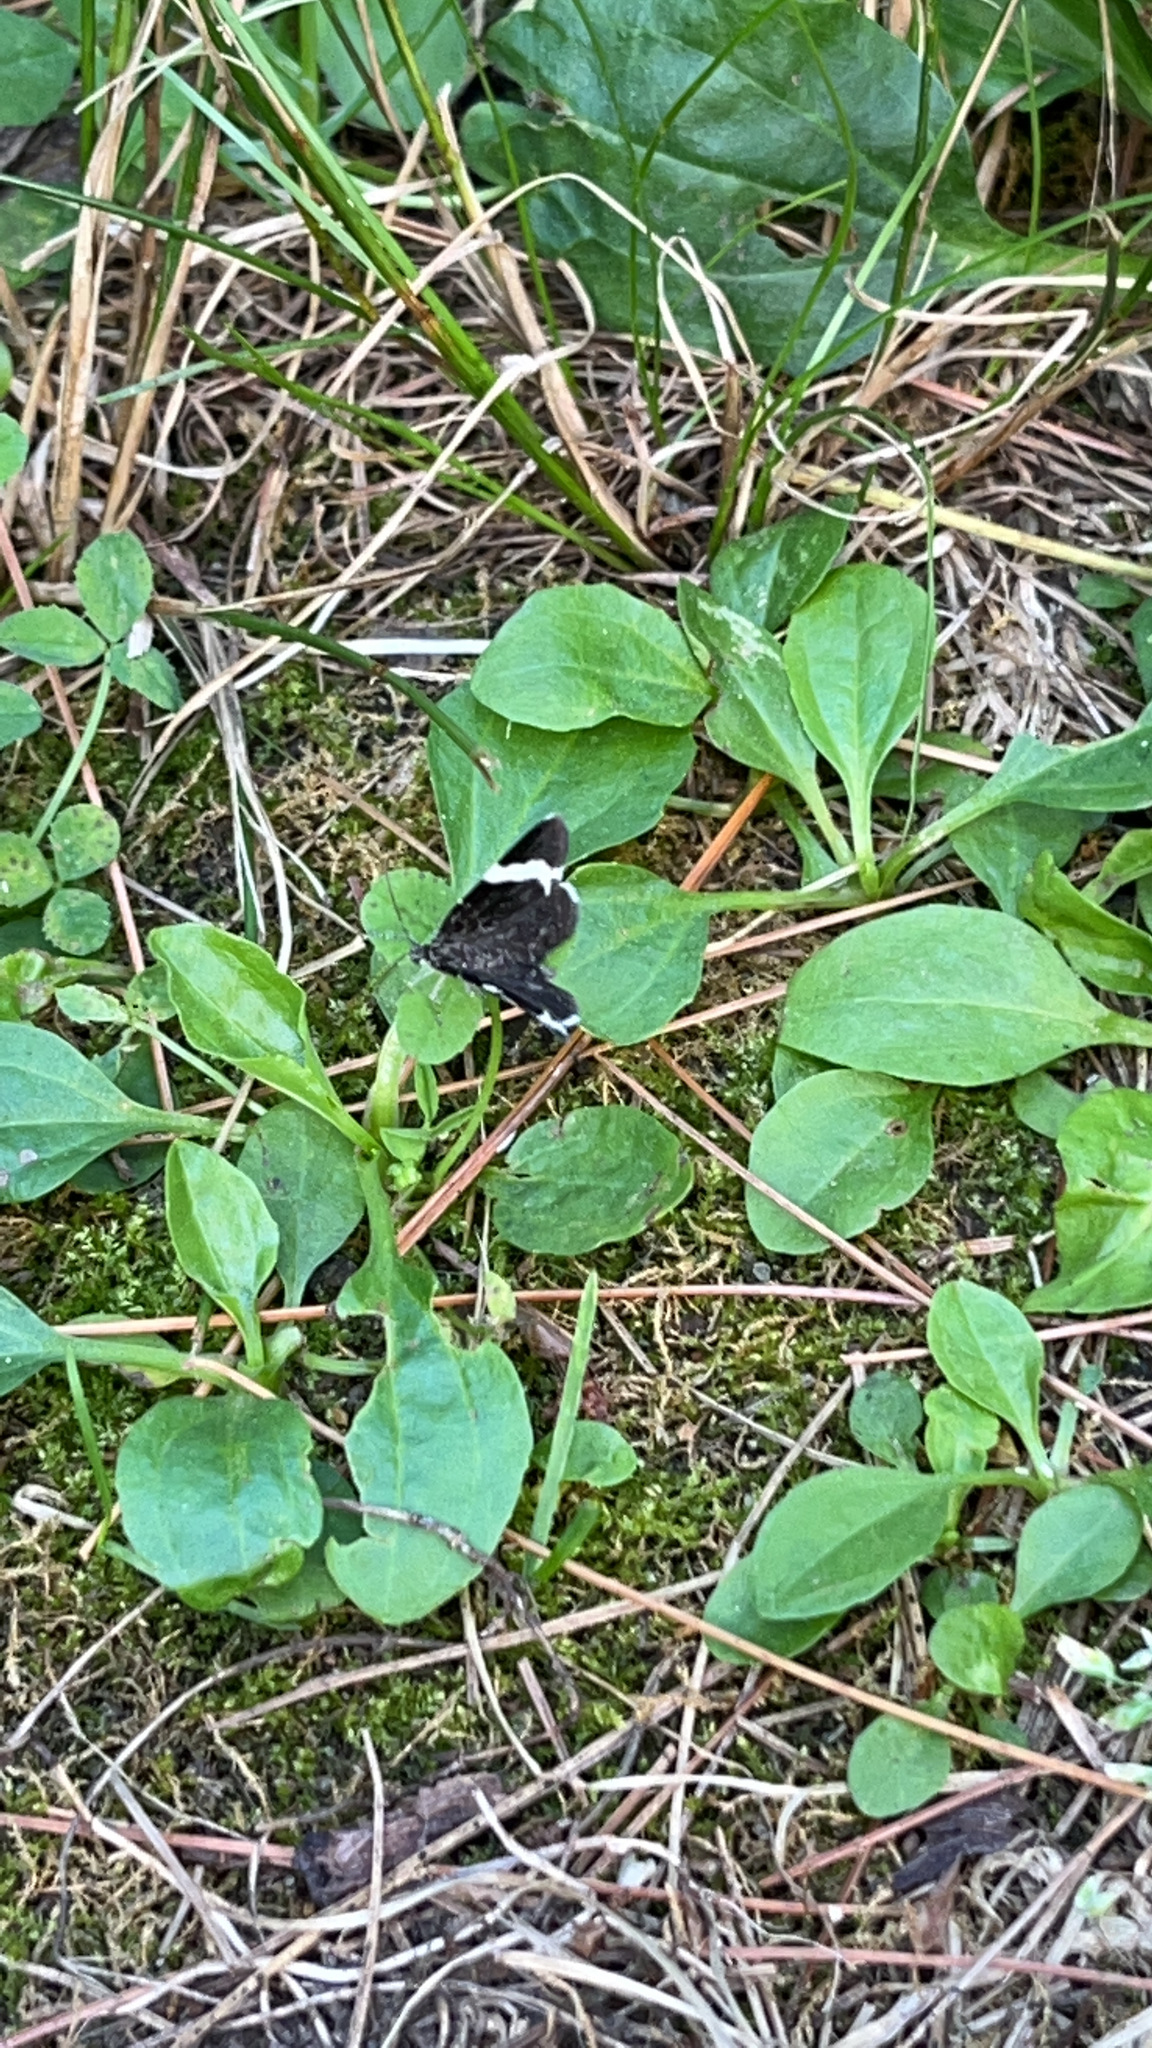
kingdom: Animalia
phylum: Arthropoda
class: Insecta
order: Lepidoptera
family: Geometridae
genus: Trichodezia
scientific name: Trichodezia albovittata
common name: White striped black
